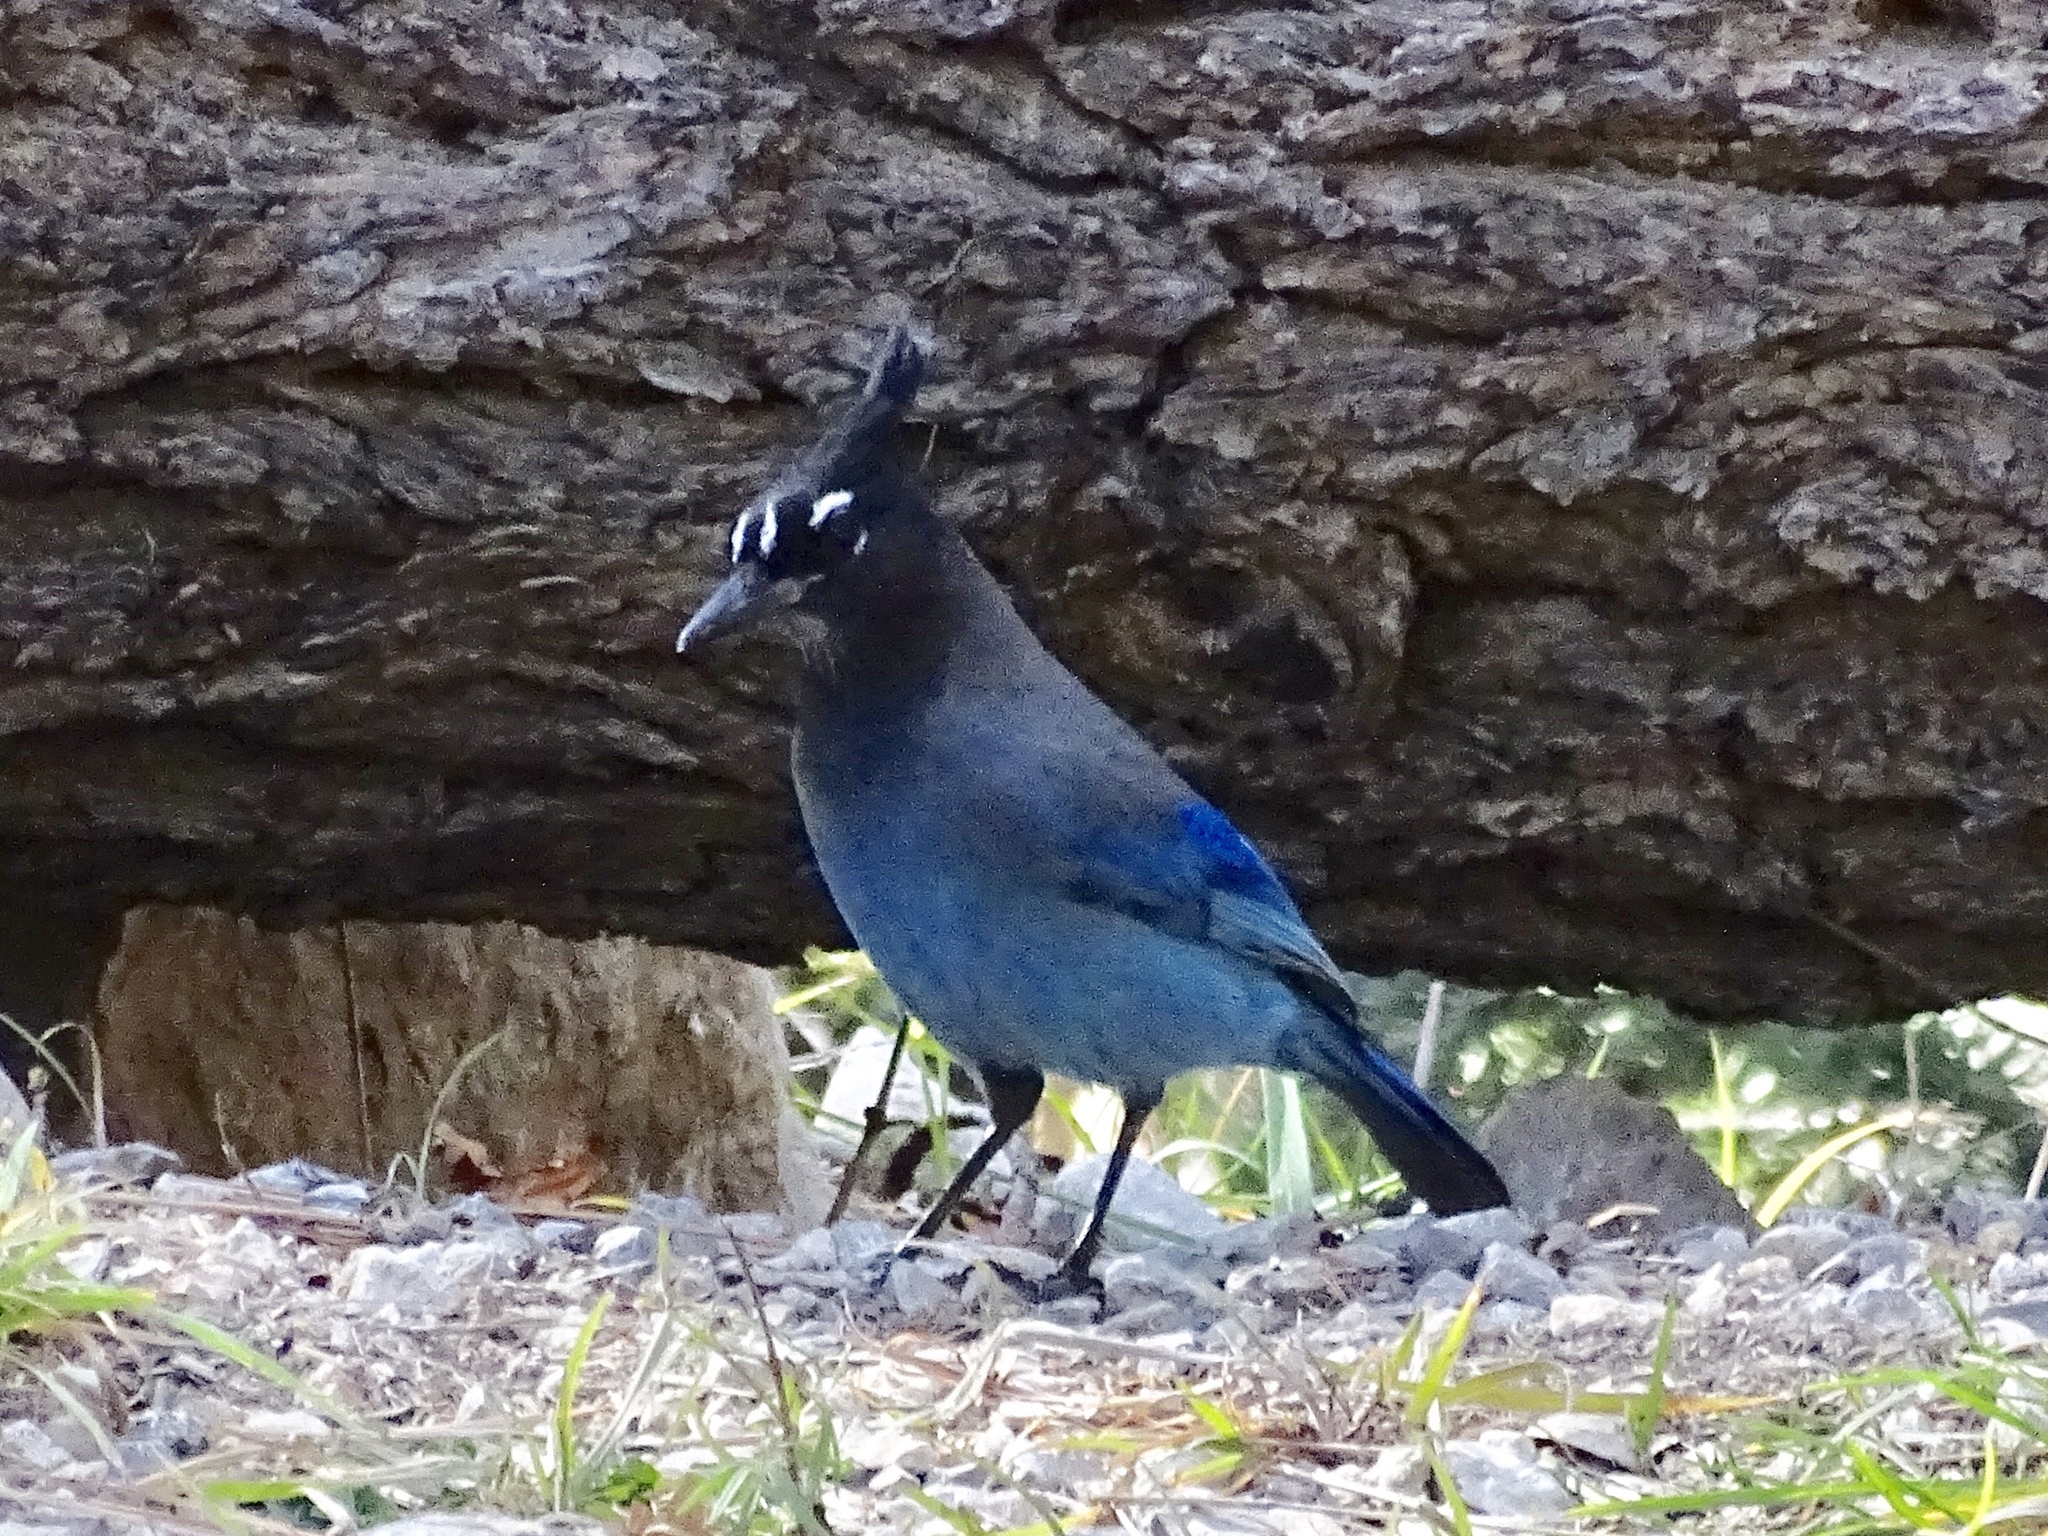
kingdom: Animalia
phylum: Chordata
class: Aves
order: Passeriformes
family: Corvidae
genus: Cyanocitta
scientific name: Cyanocitta stelleri
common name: Steller's jay
